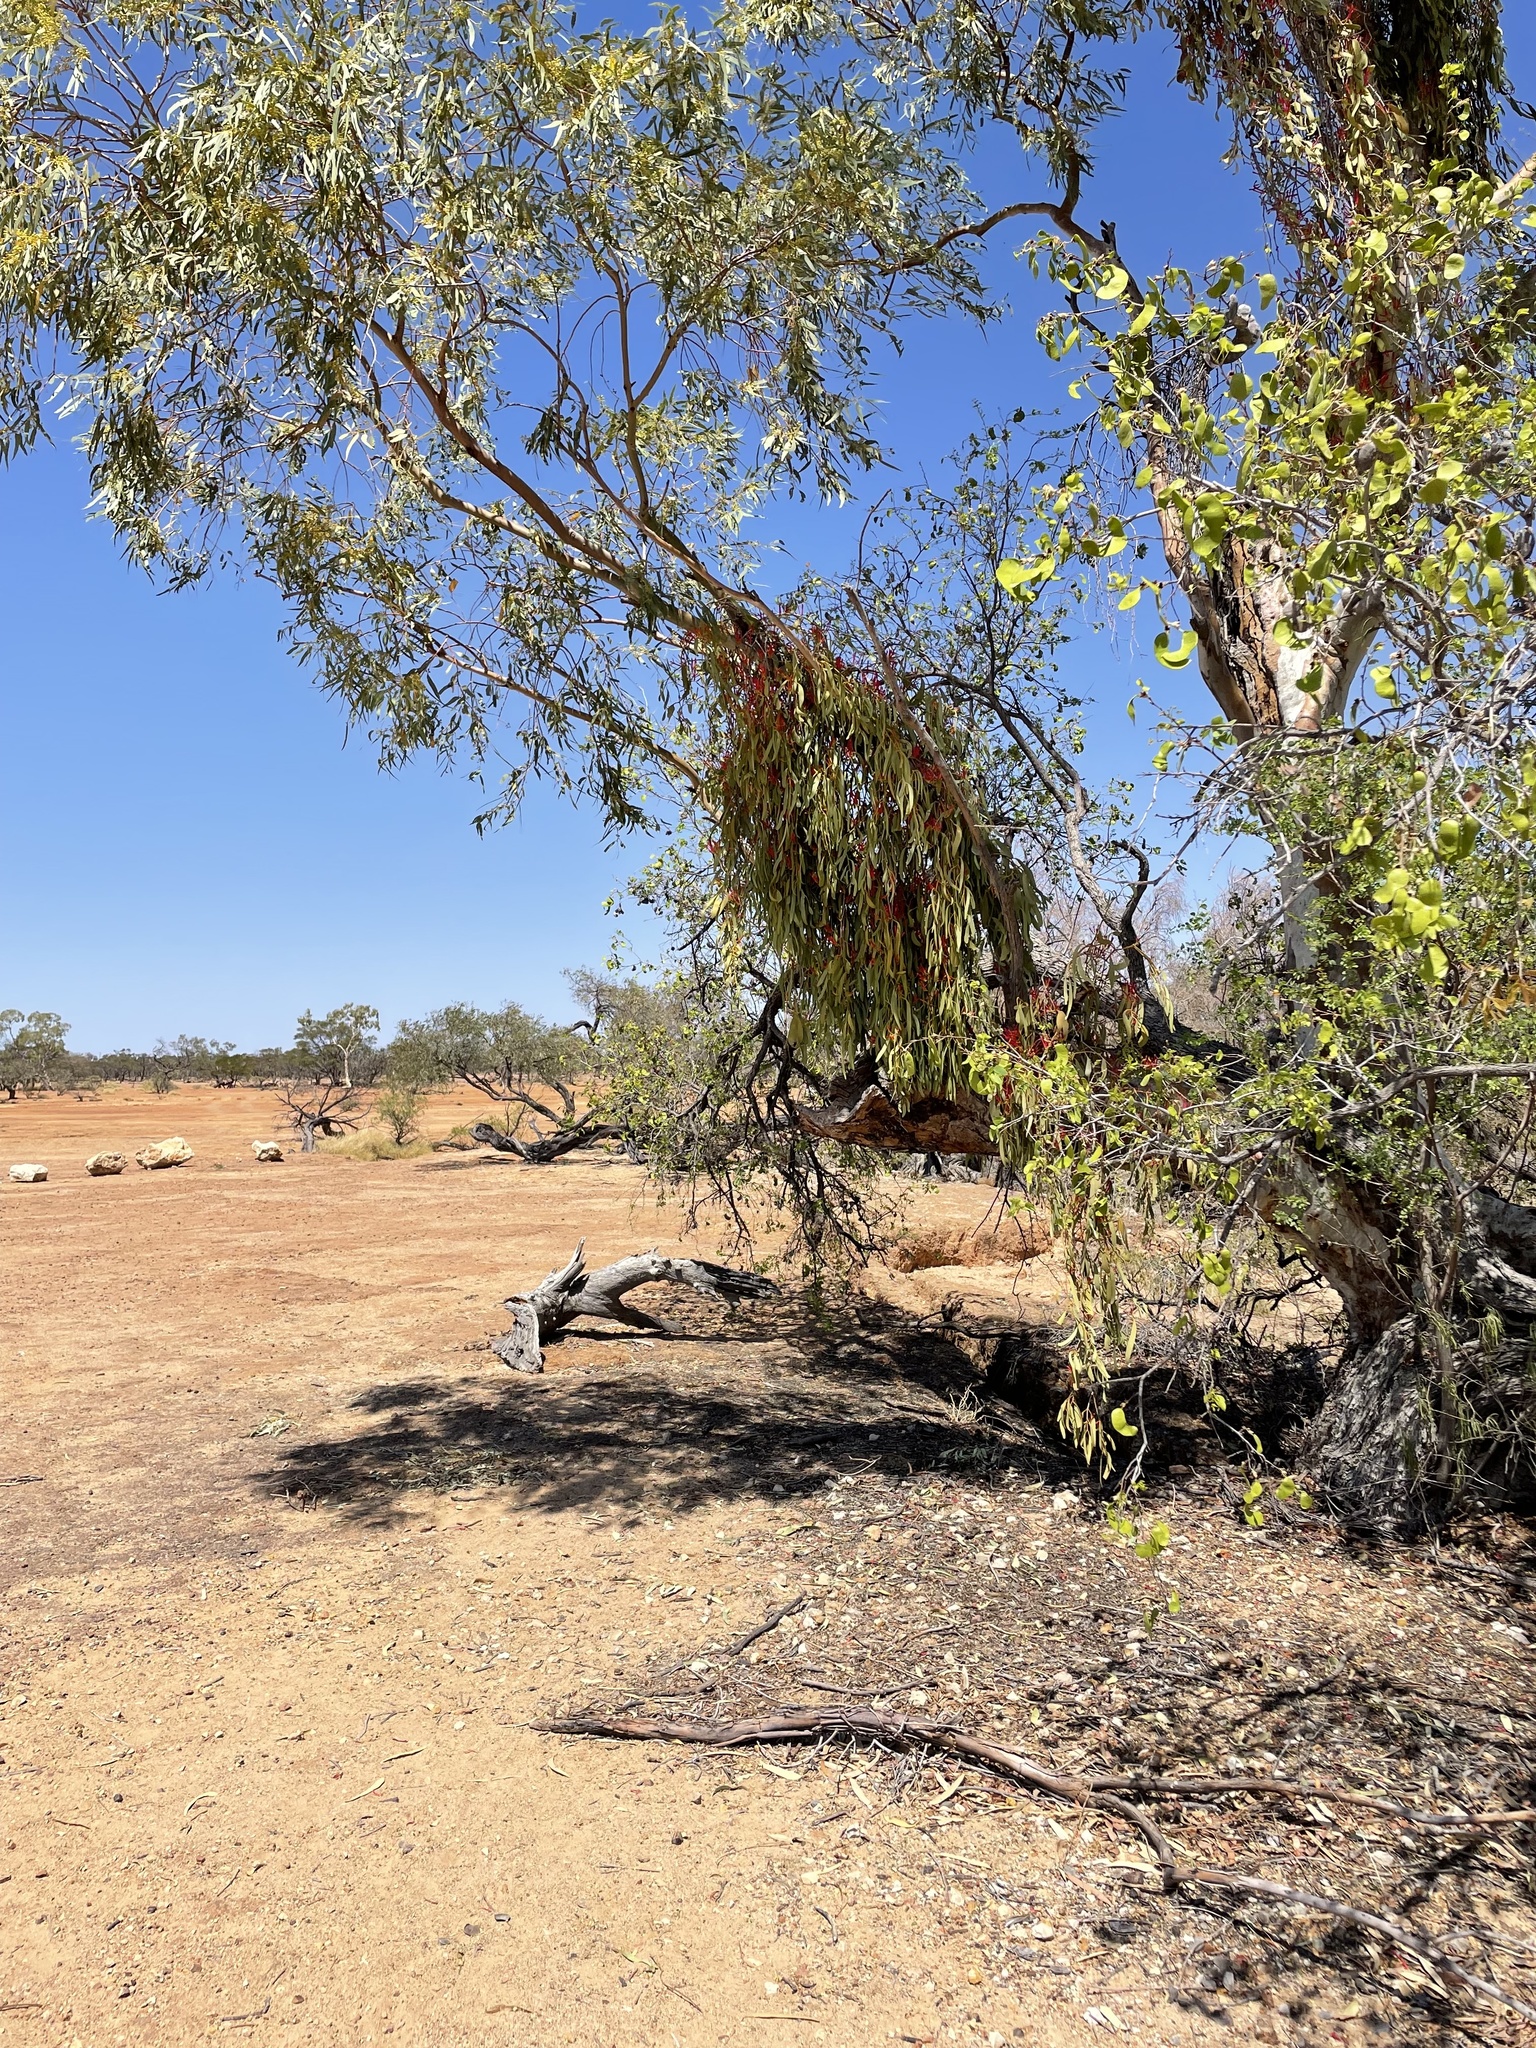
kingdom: Plantae
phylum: Tracheophyta
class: Magnoliopsida
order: Santalales
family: Loranthaceae
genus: Amyema
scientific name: Amyema sanguinea
